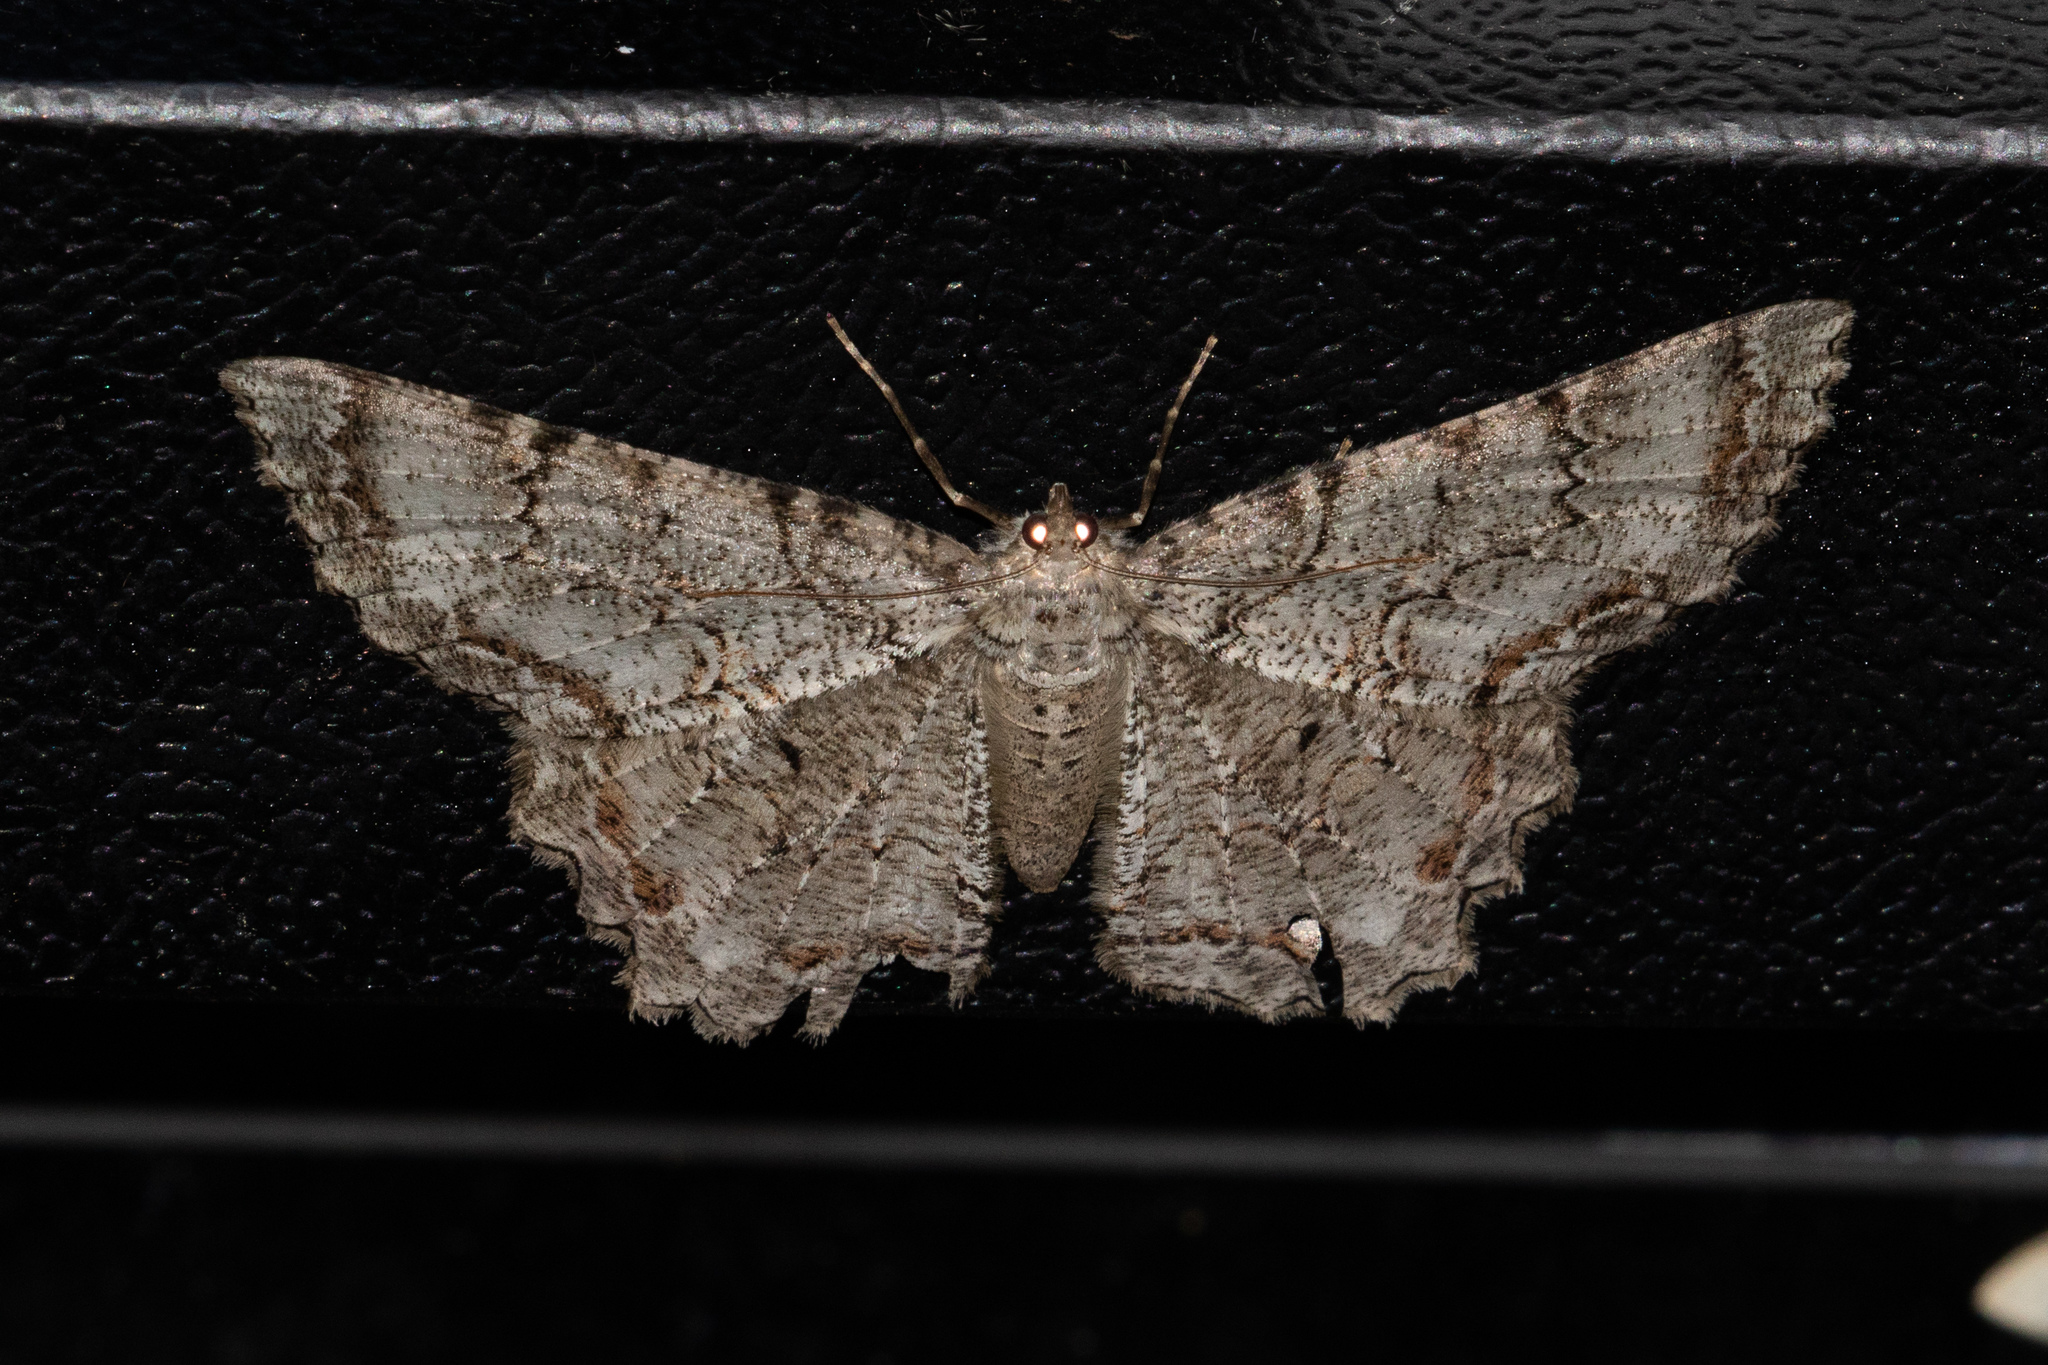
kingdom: Animalia
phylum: Arthropoda
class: Insecta
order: Lepidoptera
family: Geometridae
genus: Epimecis
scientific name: Epimecis hortaria
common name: Tulip-tree beauty
